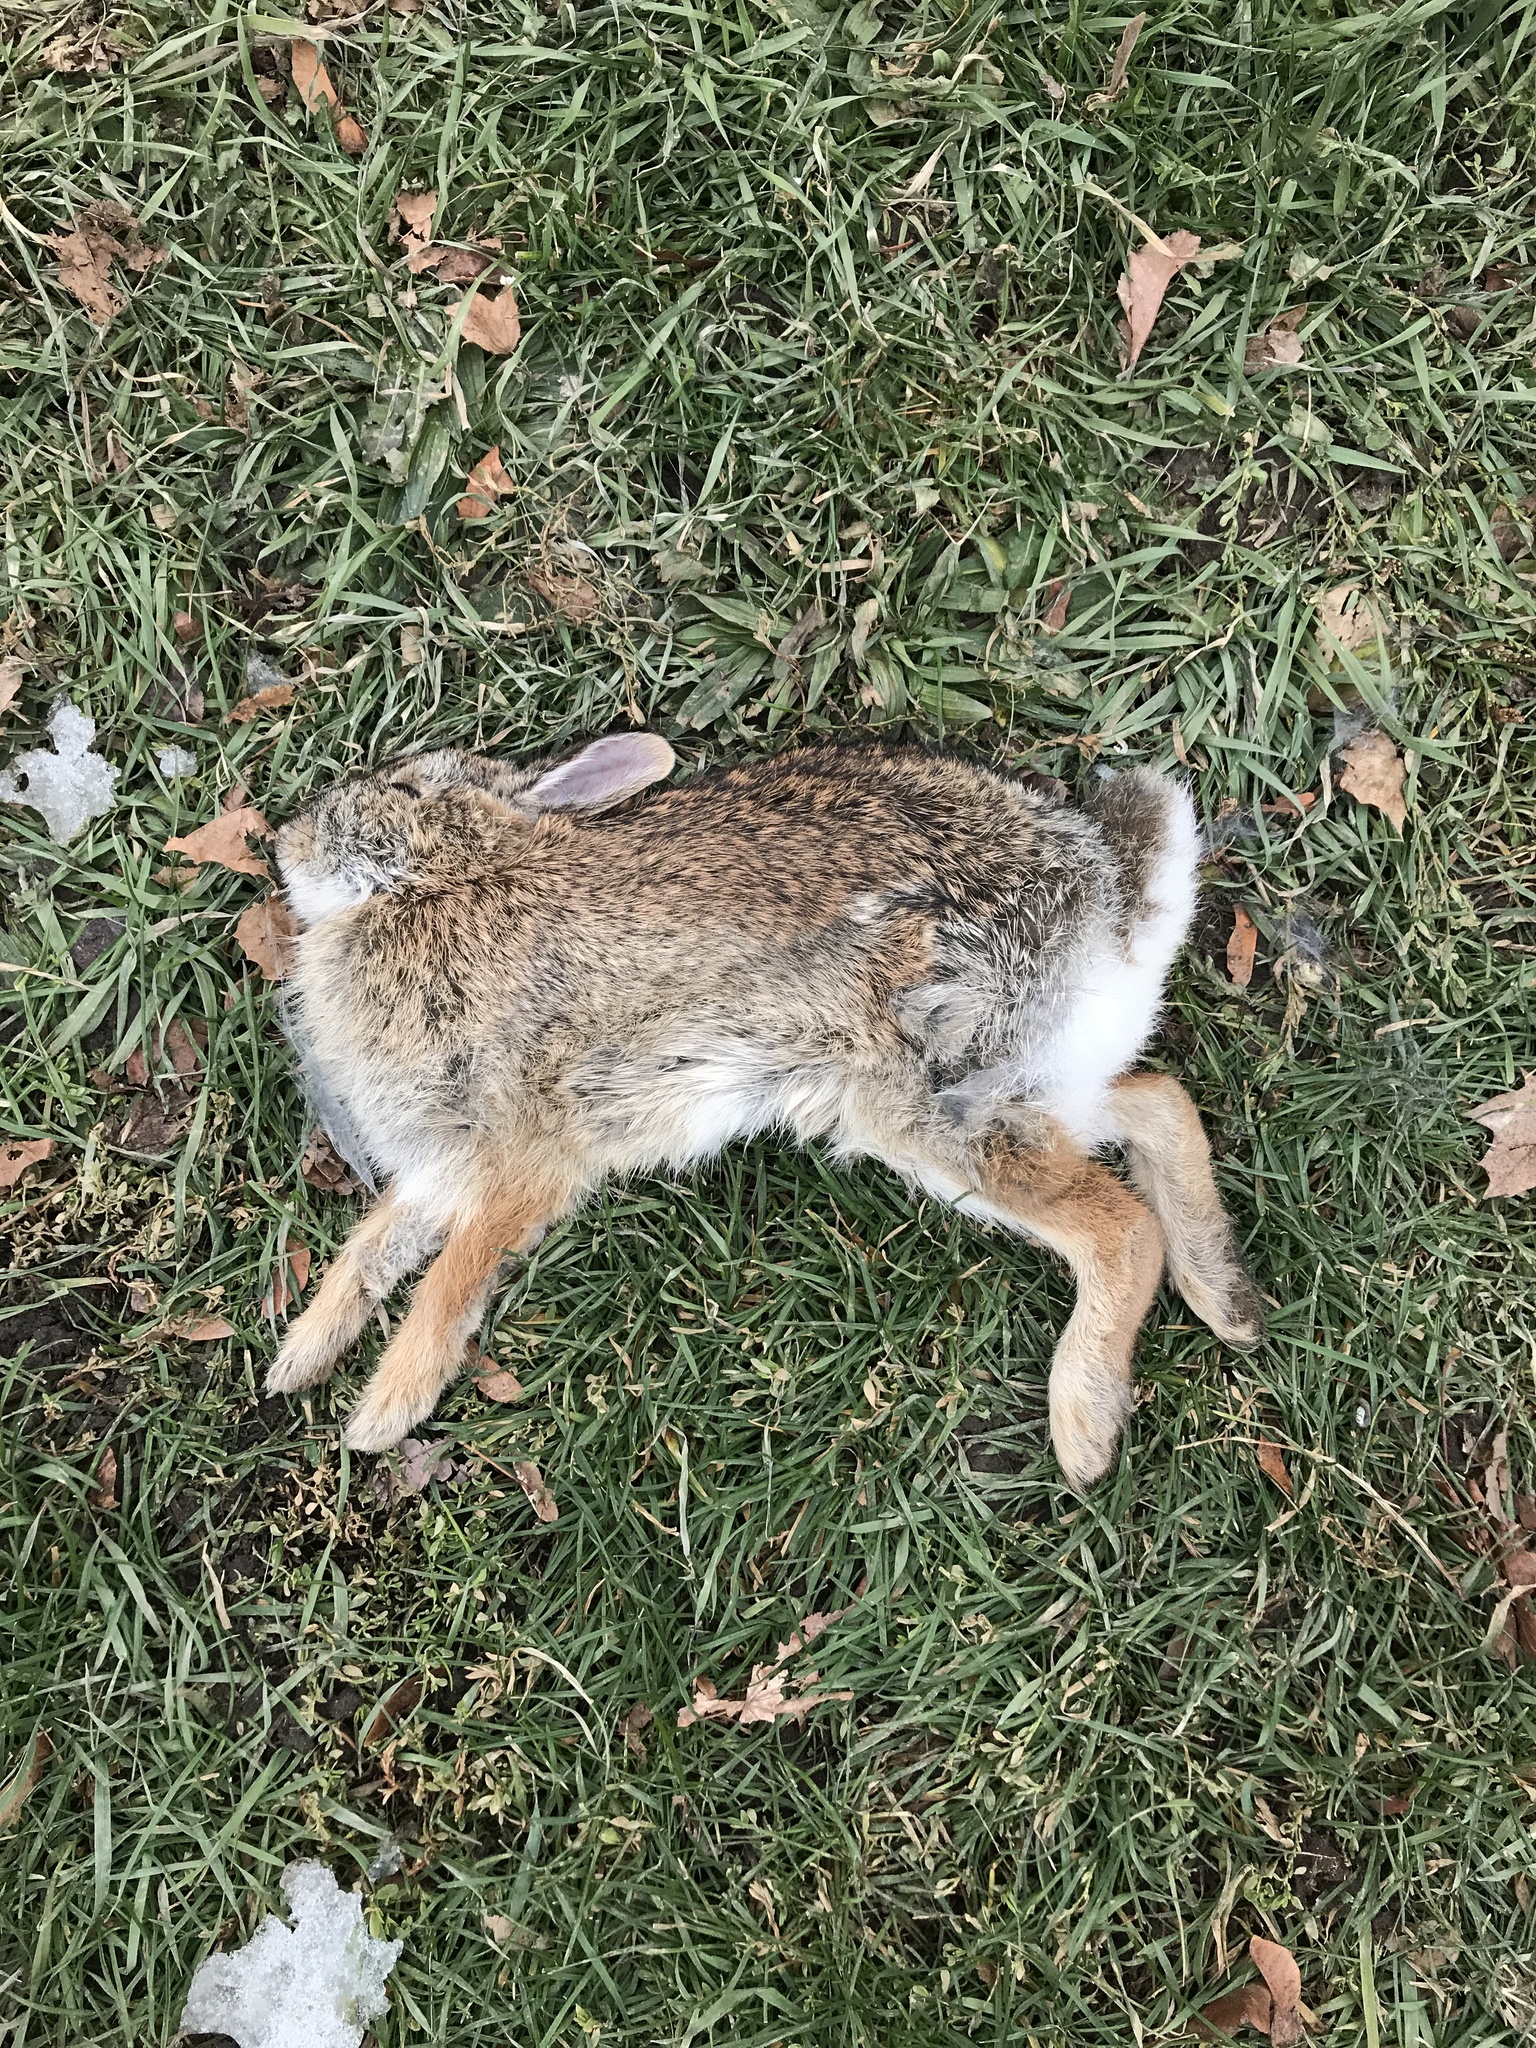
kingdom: Animalia
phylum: Chordata
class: Mammalia
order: Lagomorpha
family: Leporidae
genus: Sylvilagus
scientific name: Sylvilagus floridanus
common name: Eastern cottontail
